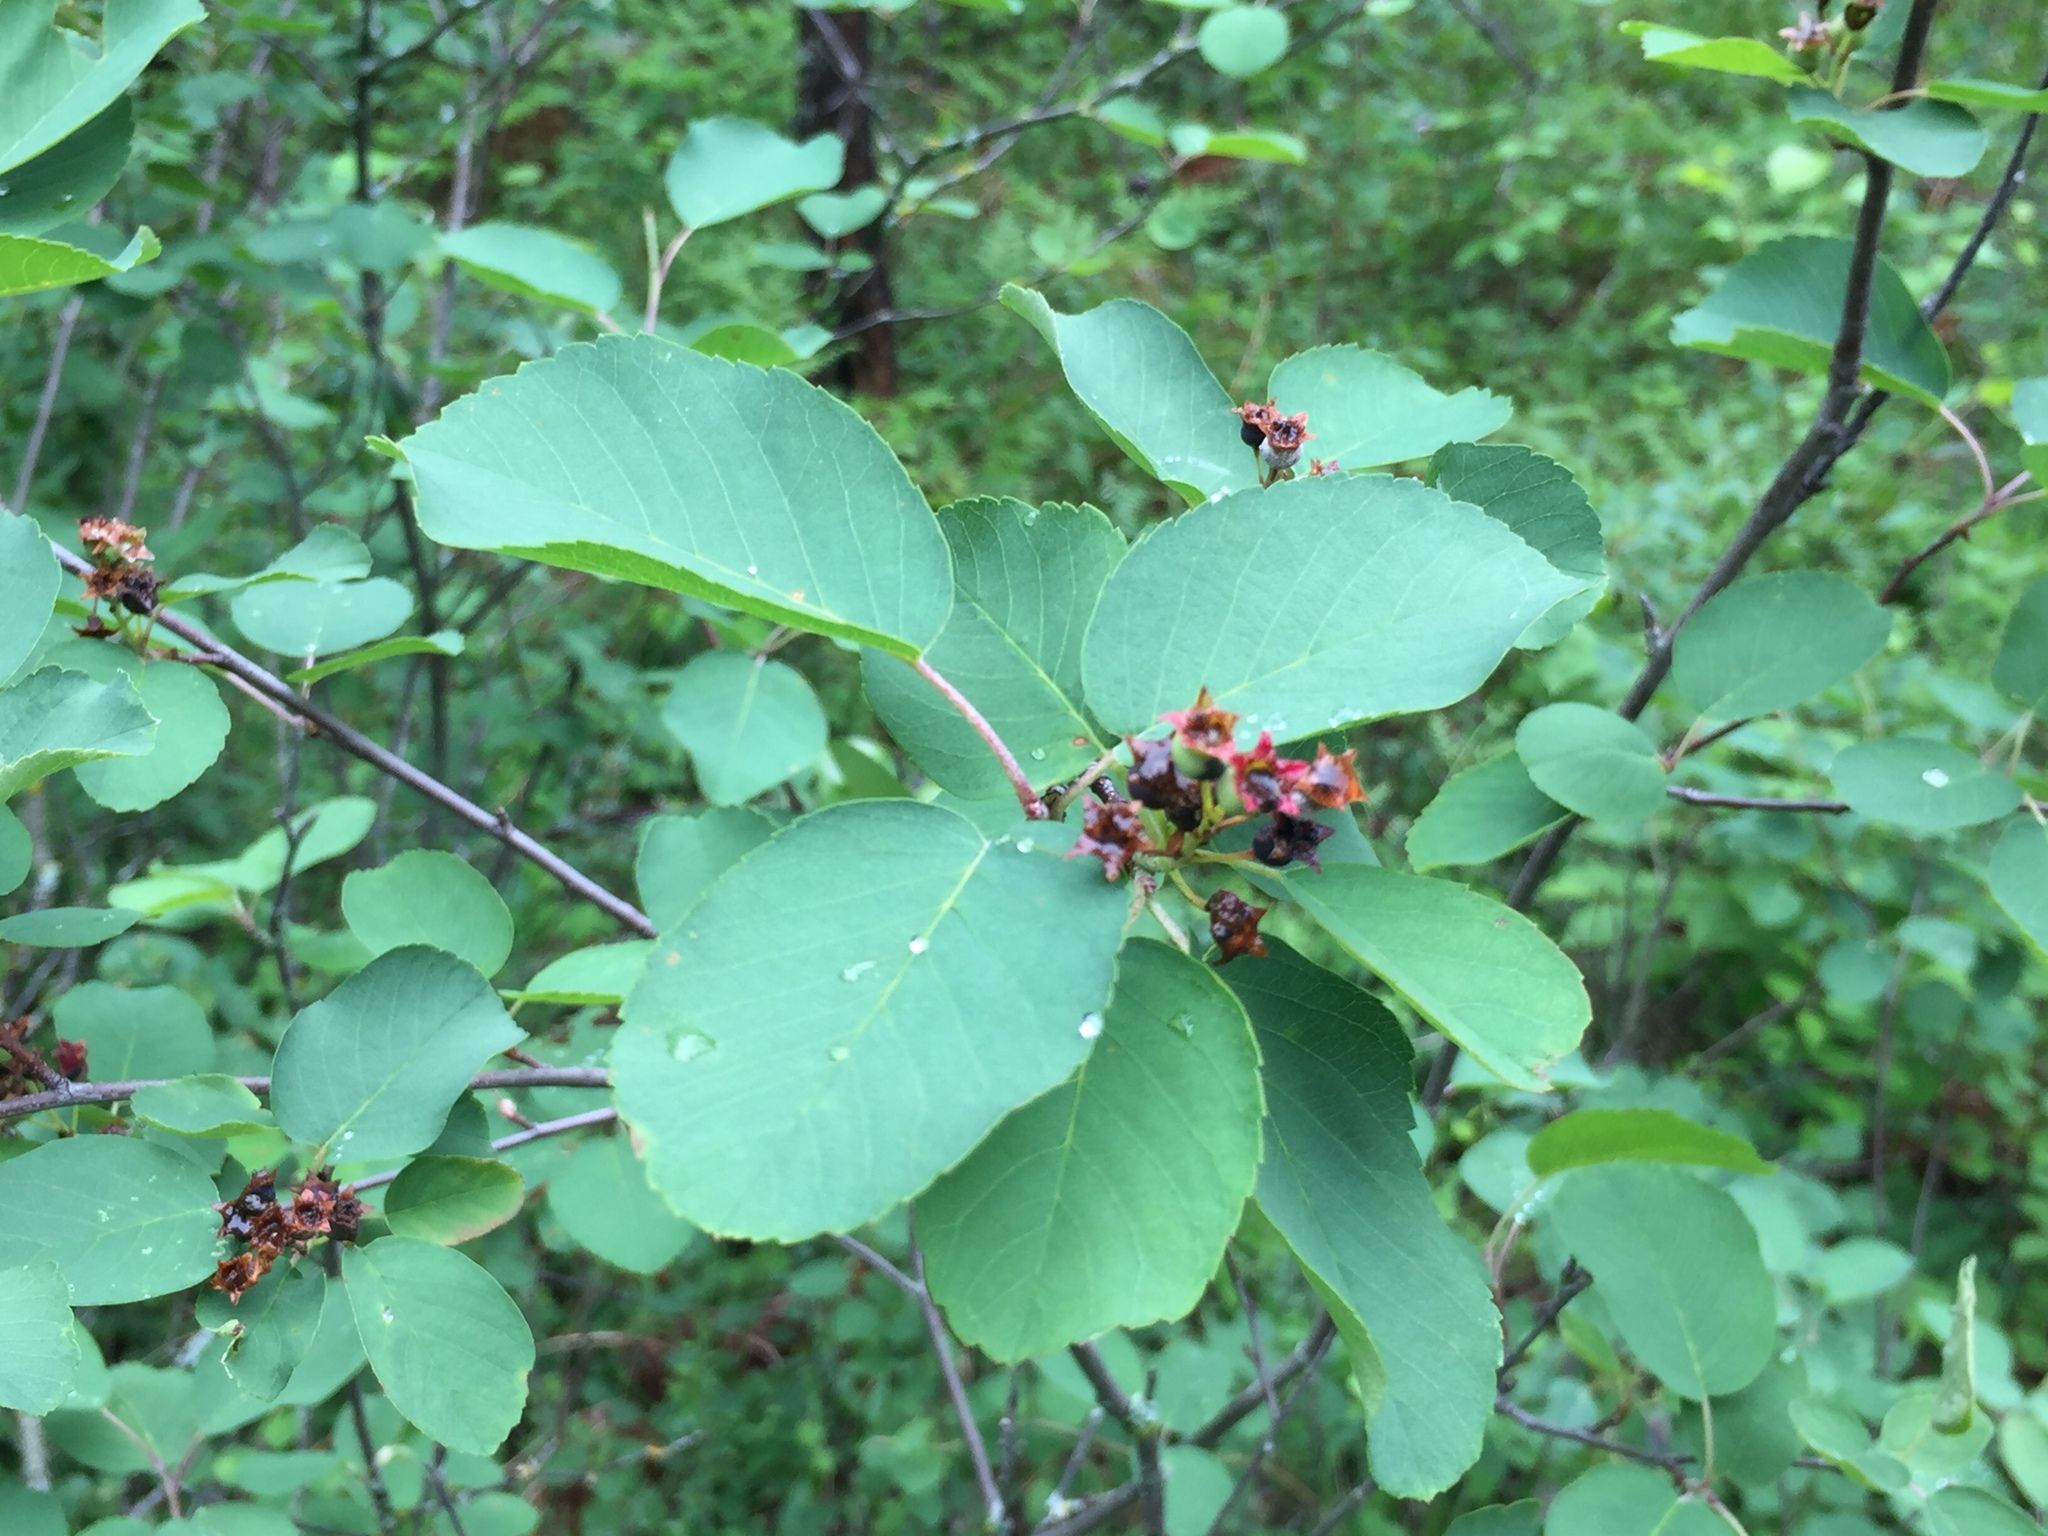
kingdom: Plantae
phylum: Tracheophyta
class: Magnoliopsida
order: Rosales
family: Rosaceae
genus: Amelanchier
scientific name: Amelanchier alnifolia
